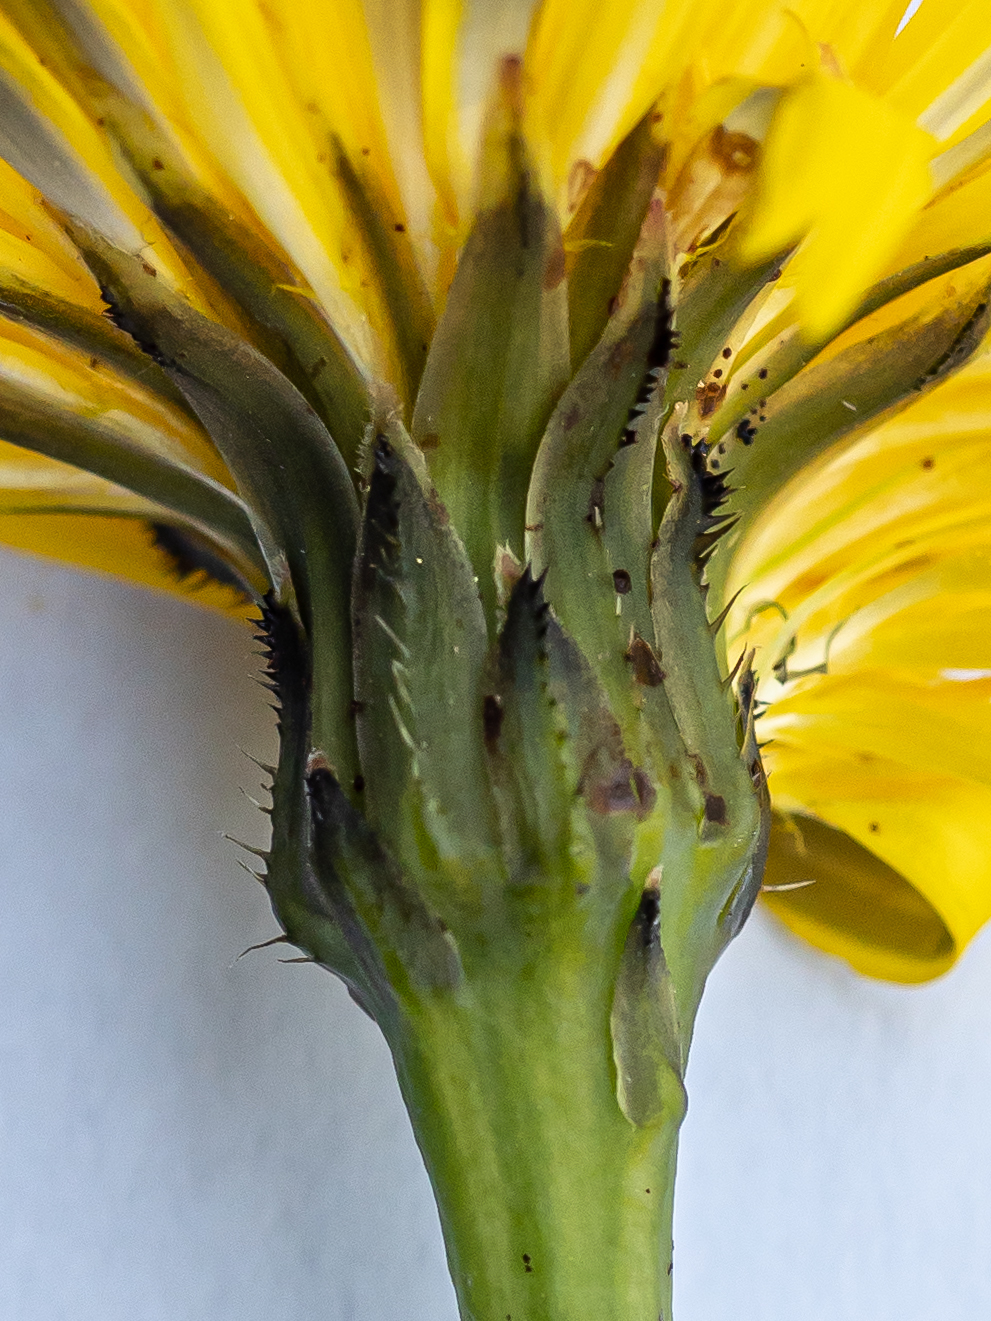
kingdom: Plantae
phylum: Tracheophyta
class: Magnoliopsida
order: Asterales
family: Asteraceae
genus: Hypochaeris
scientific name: Hypochaeris radicata
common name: Flatweed
